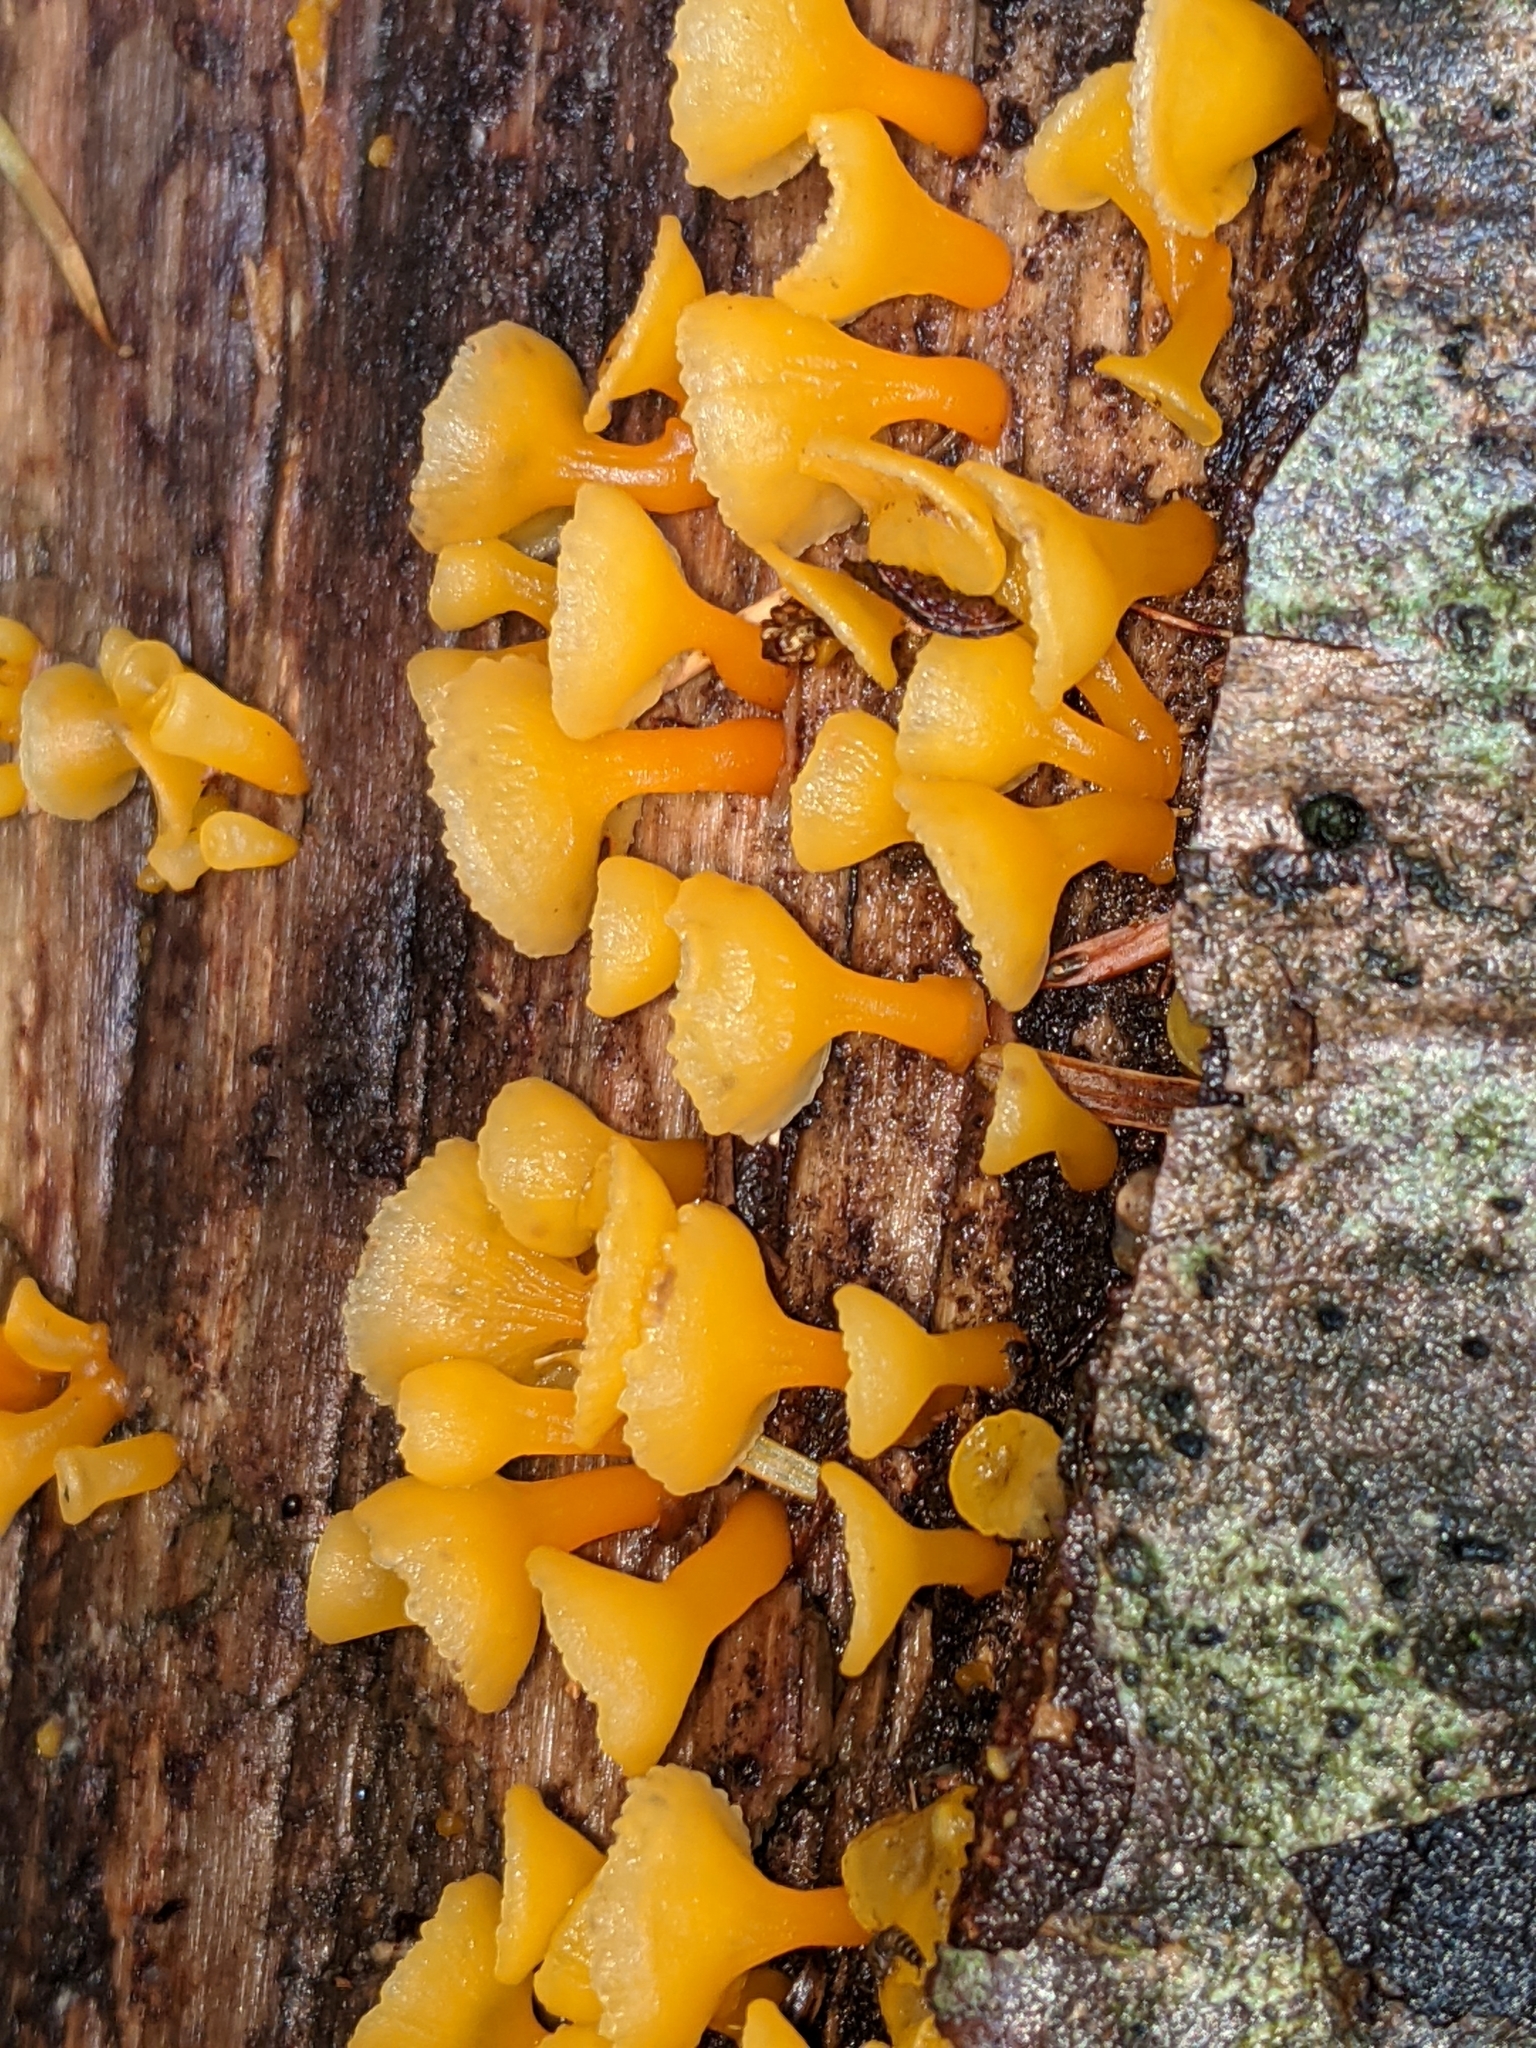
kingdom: Fungi
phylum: Basidiomycota
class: Dacrymycetes
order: Dacrymycetales
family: Dacrymycetaceae
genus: Guepiniopsis
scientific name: Guepiniopsis buccina
